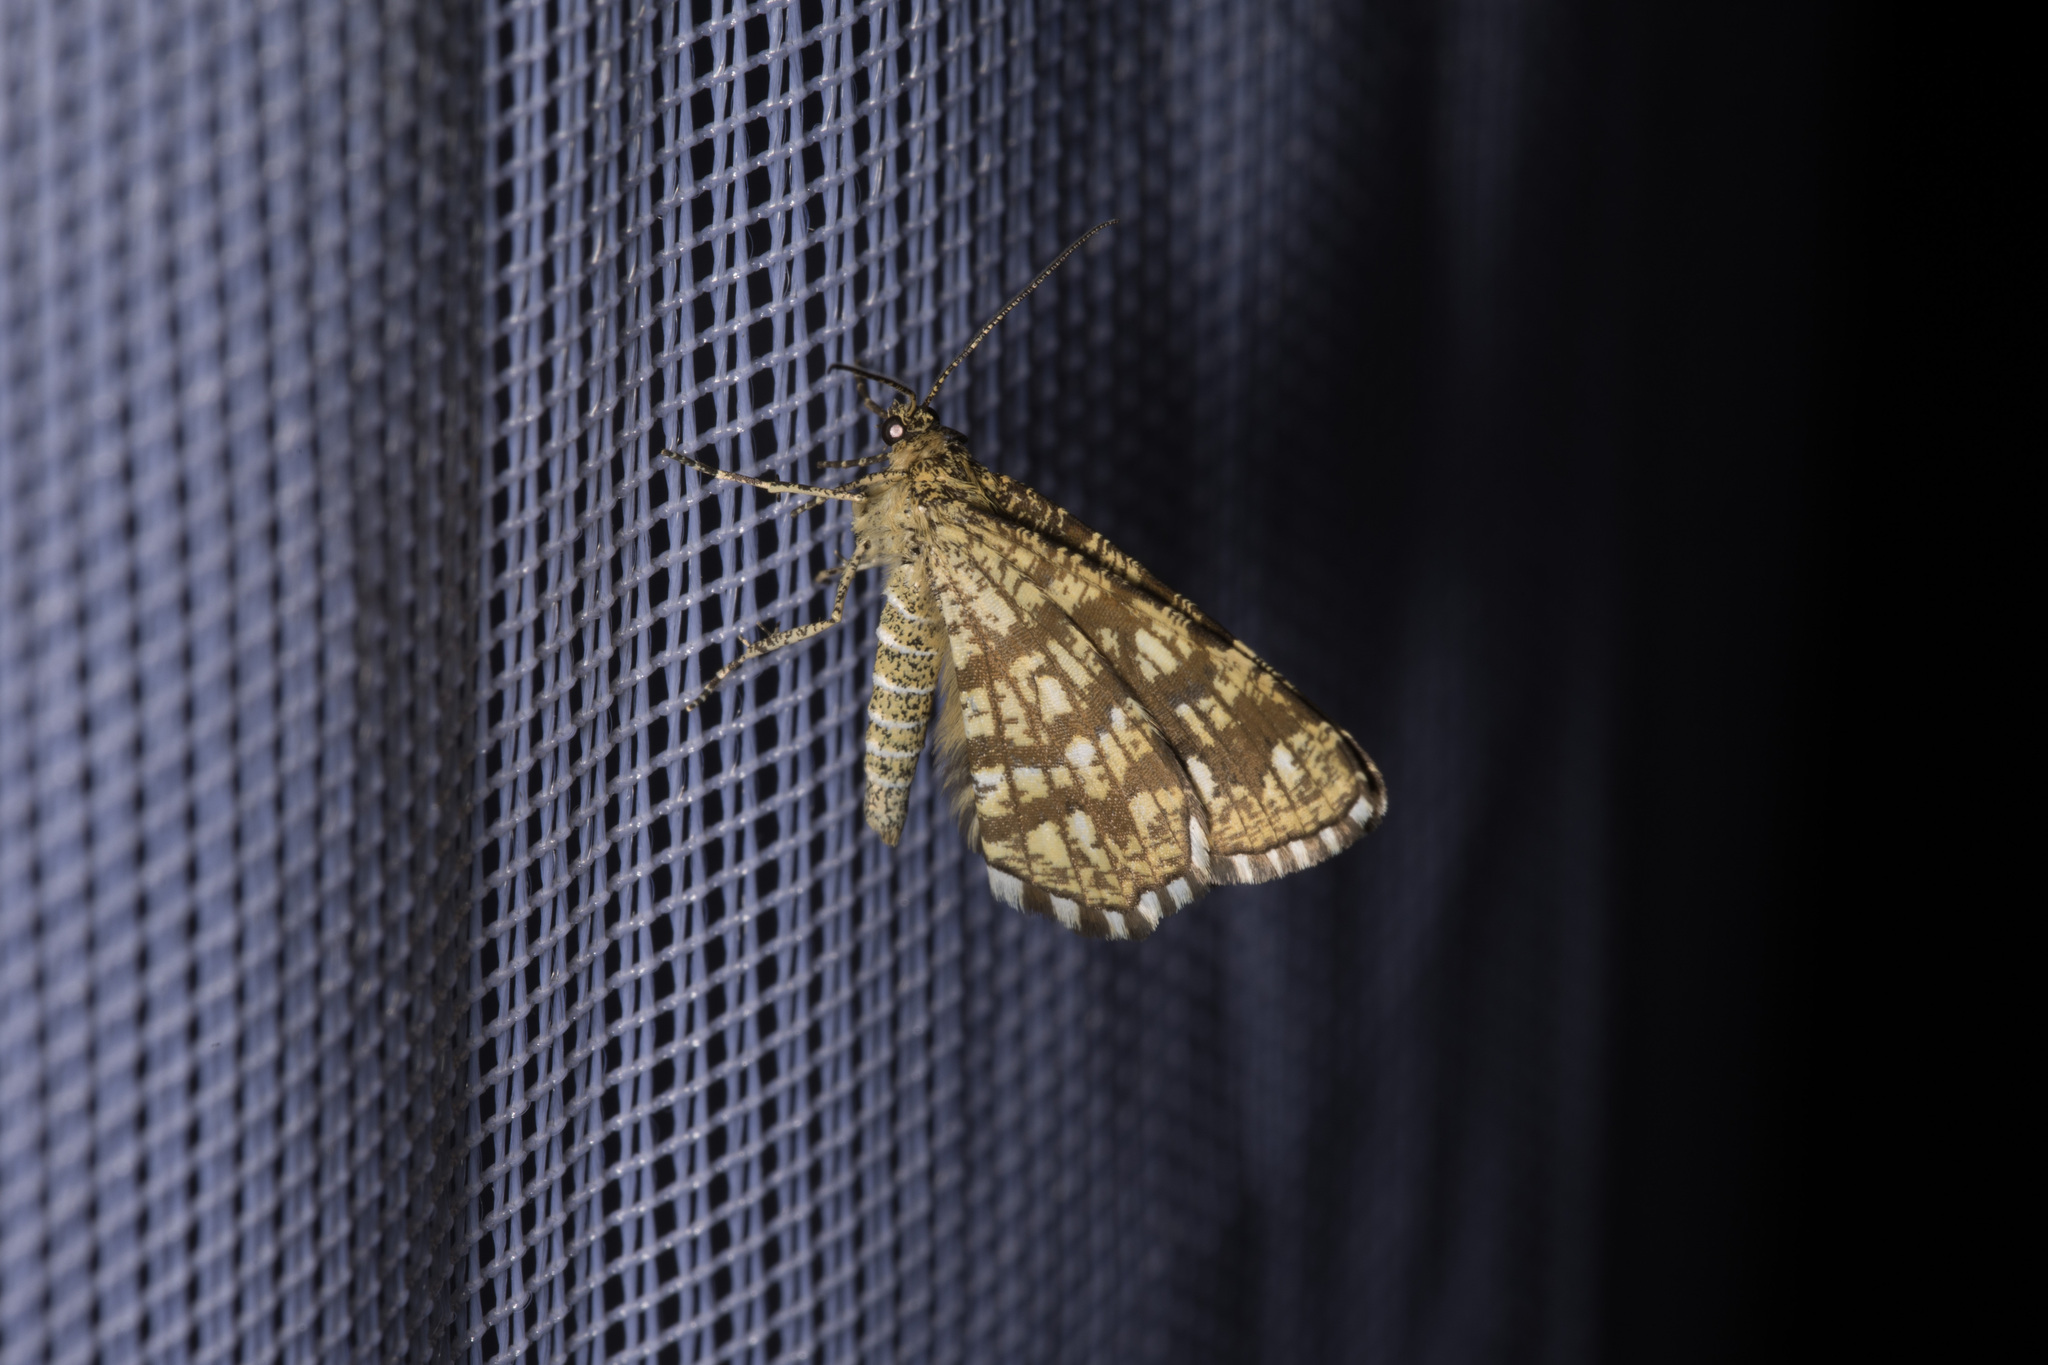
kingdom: Animalia
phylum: Arthropoda
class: Insecta
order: Lepidoptera
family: Geometridae
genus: Chiasmia
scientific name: Chiasmia clathrata
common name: Latticed heath
